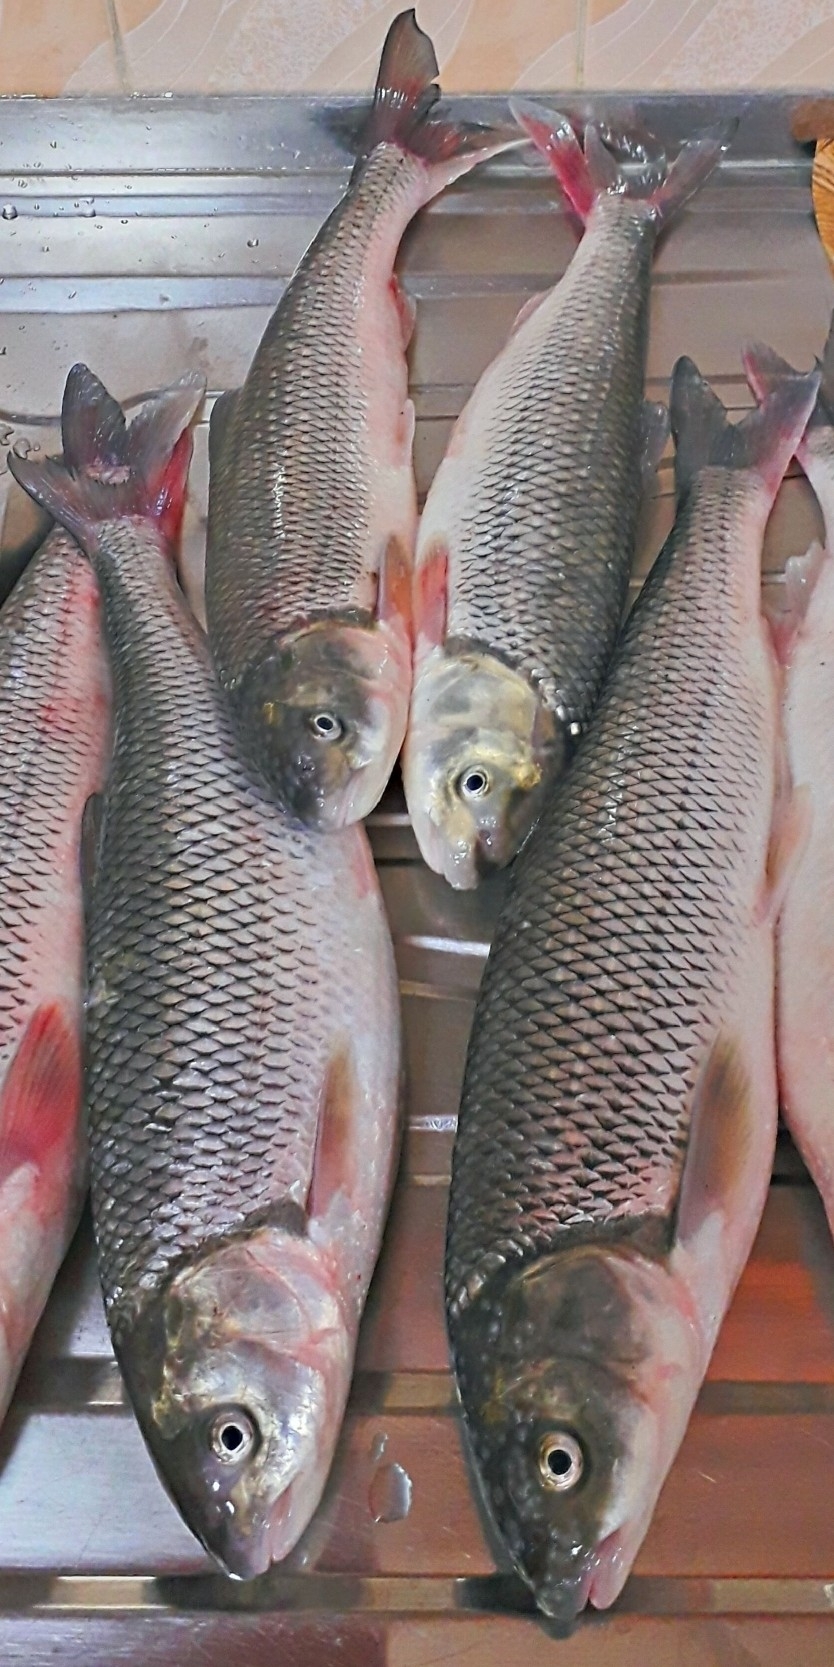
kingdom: Animalia
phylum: Chordata
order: Cypriniformes
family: Cyprinidae
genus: Rutilus
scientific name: Rutilus kutum
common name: Kutum
